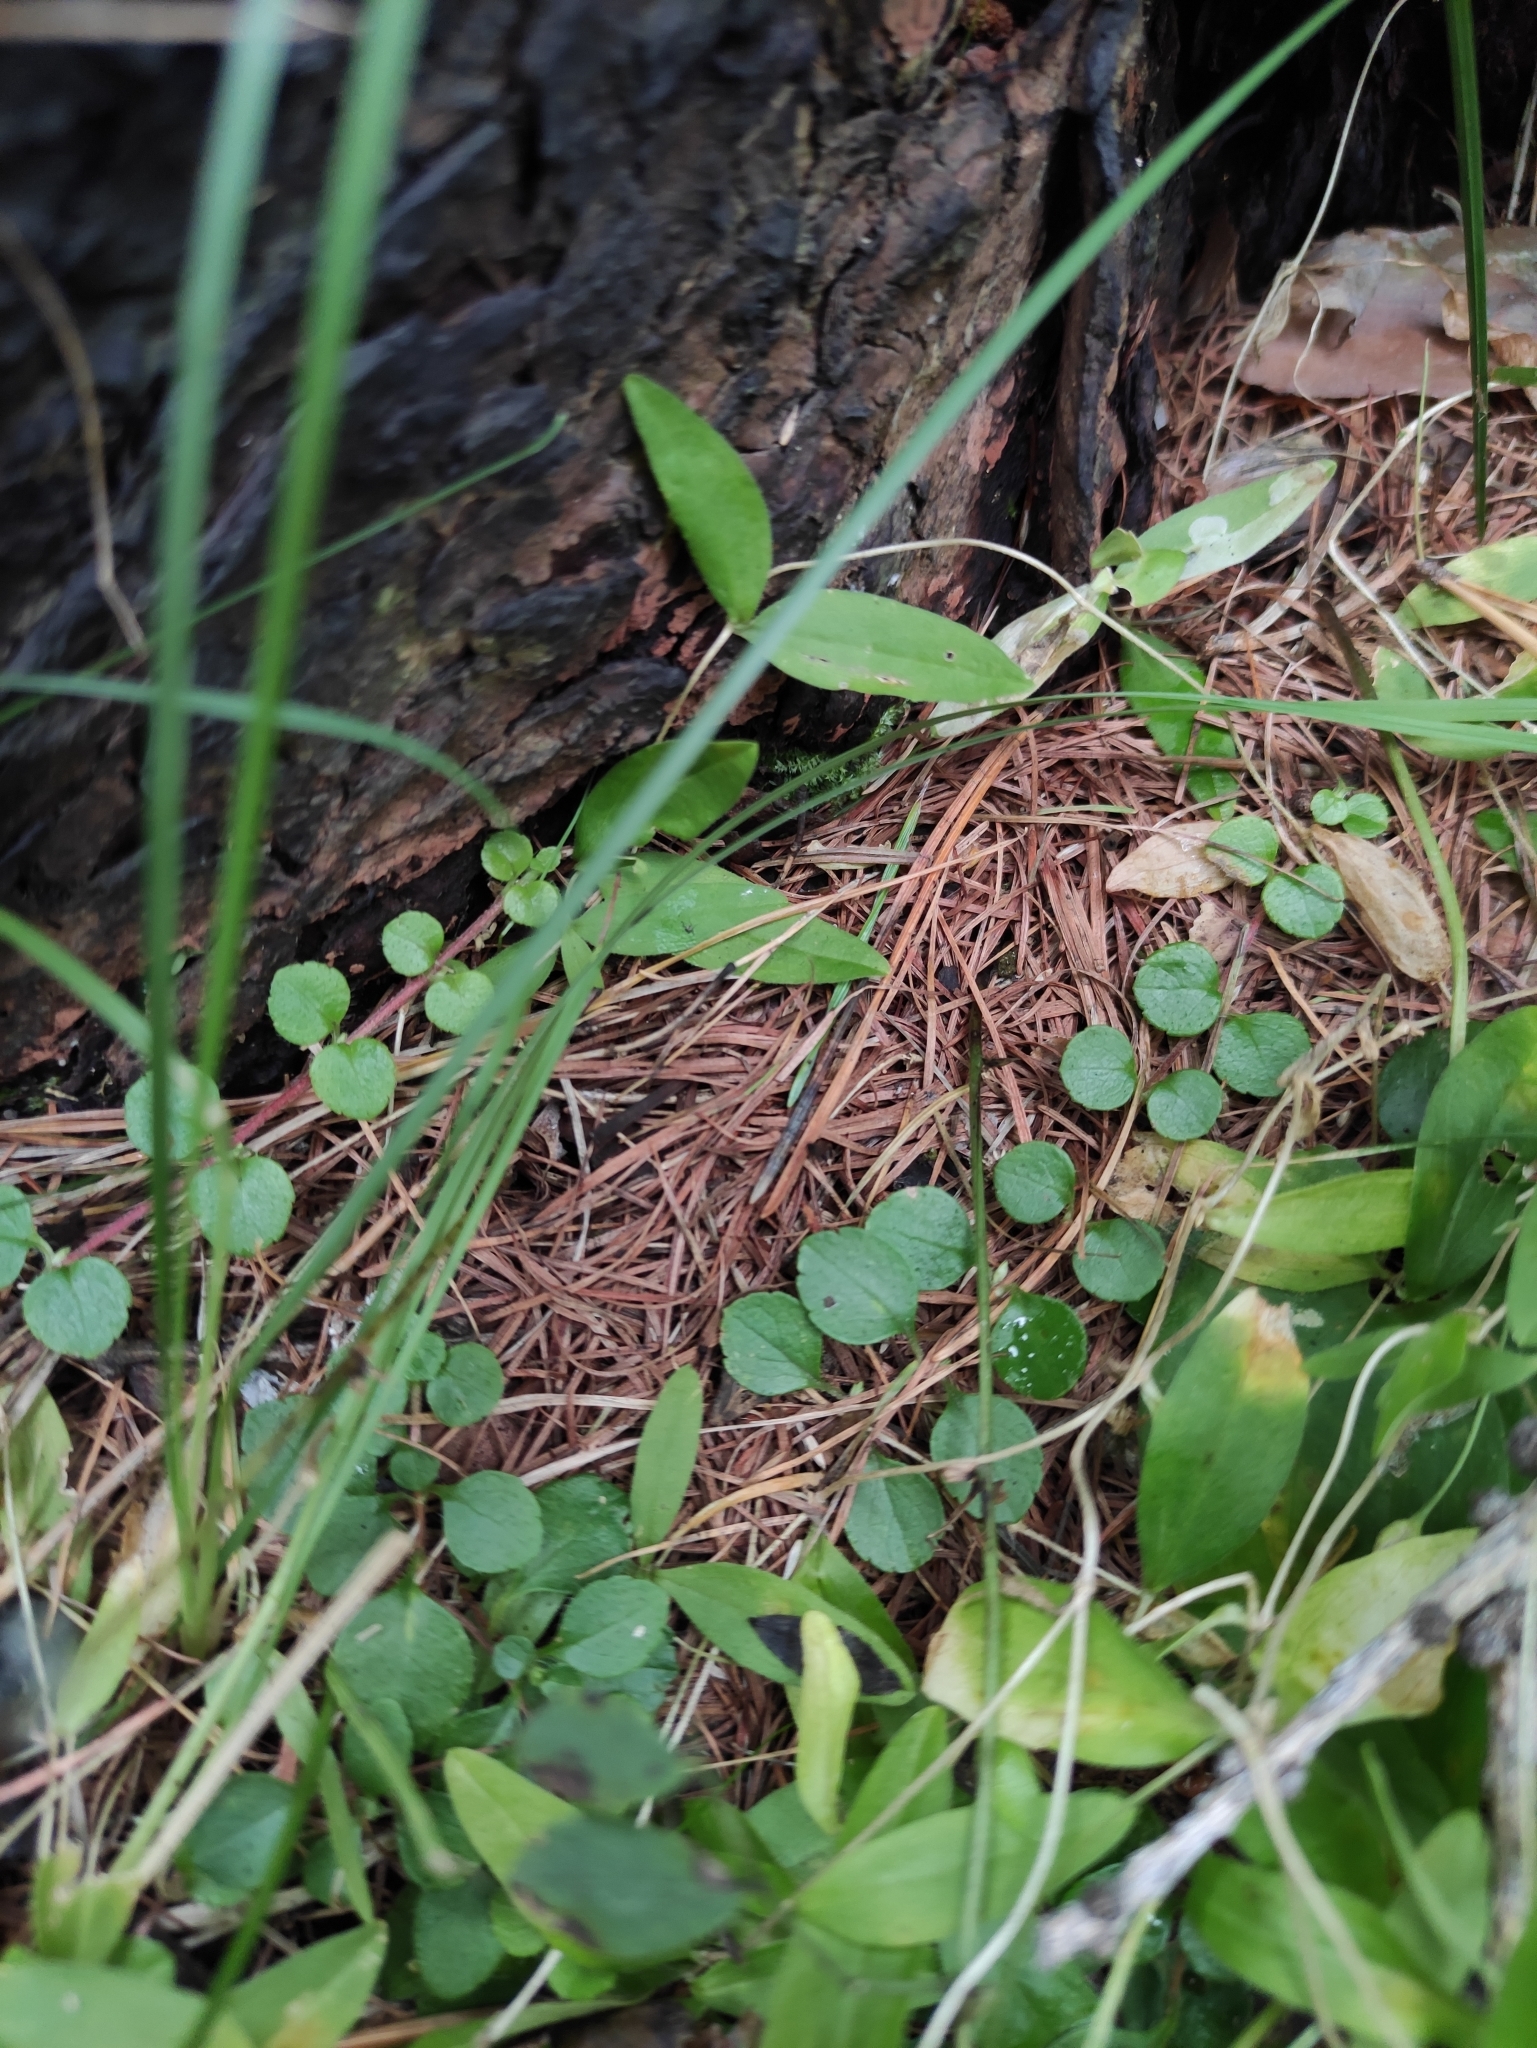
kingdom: Plantae
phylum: Tracheophyta
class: Magnoliopsida
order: Dipsacales
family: Caprifoliaceae
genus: Linnaea
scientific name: Linnaea borealis
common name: Twinflower
